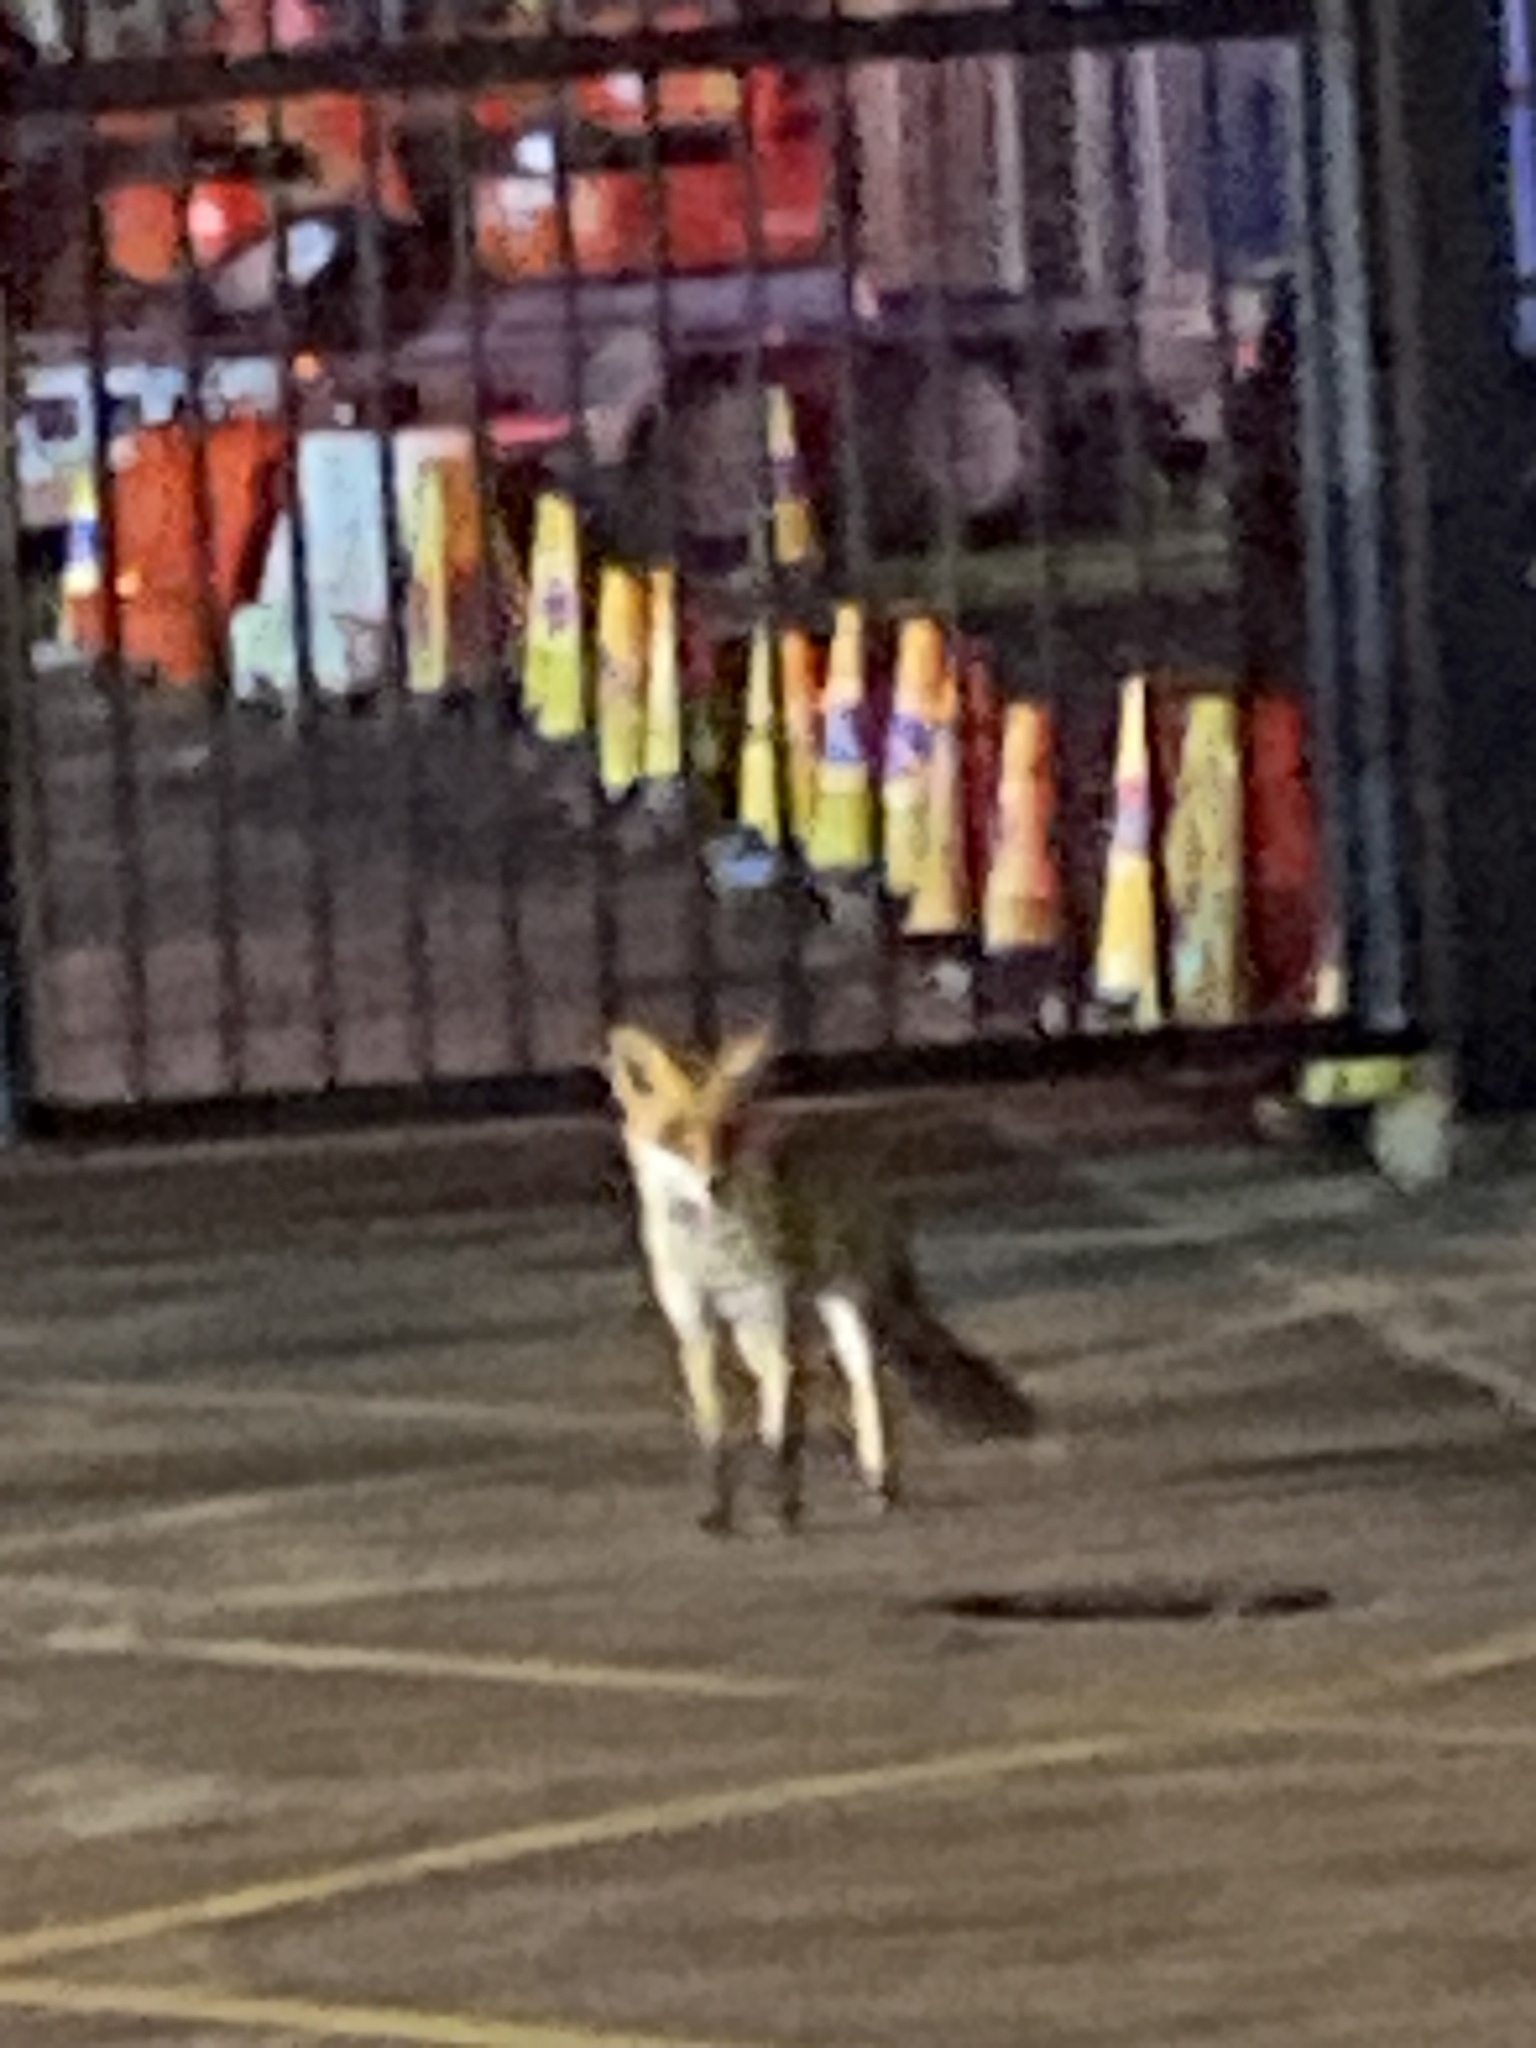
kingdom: Animalia
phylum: Chordata
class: Mammalia
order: Carnivora
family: Canidae
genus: Vulpes
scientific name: Vulpes vulpes
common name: Red fox
